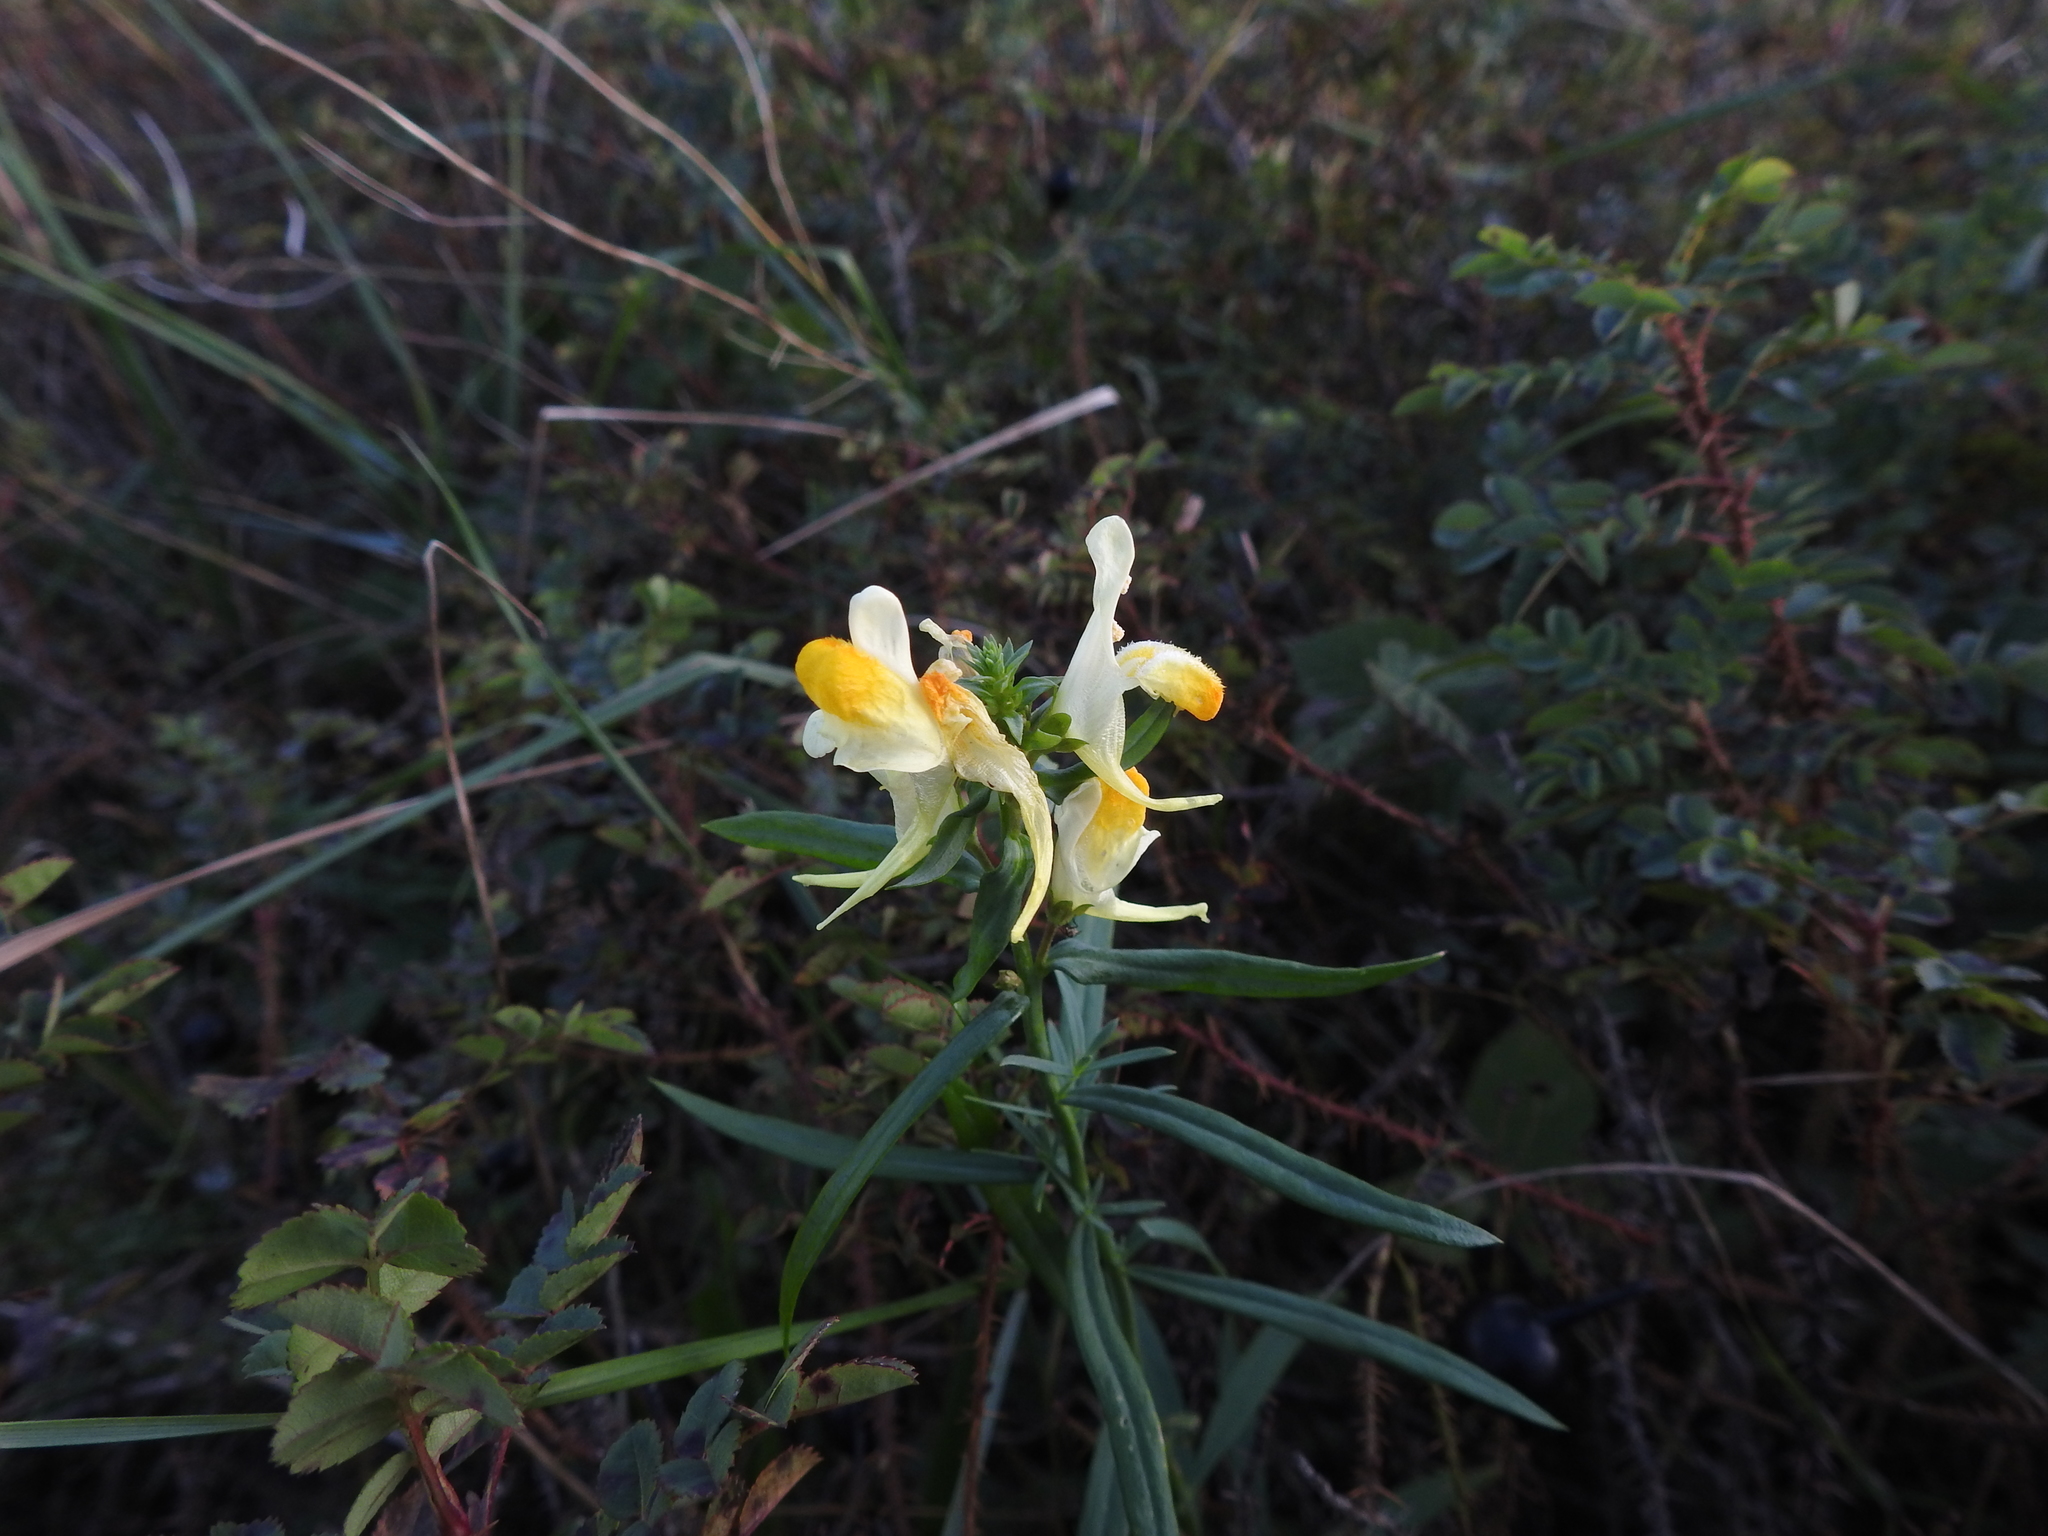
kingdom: Plantae
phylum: Tracheophyta
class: Magnoliopsida
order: Lamiales
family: Plantaginaceae
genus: Linaria
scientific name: Linaria vulgaris
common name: Butter and eggs
